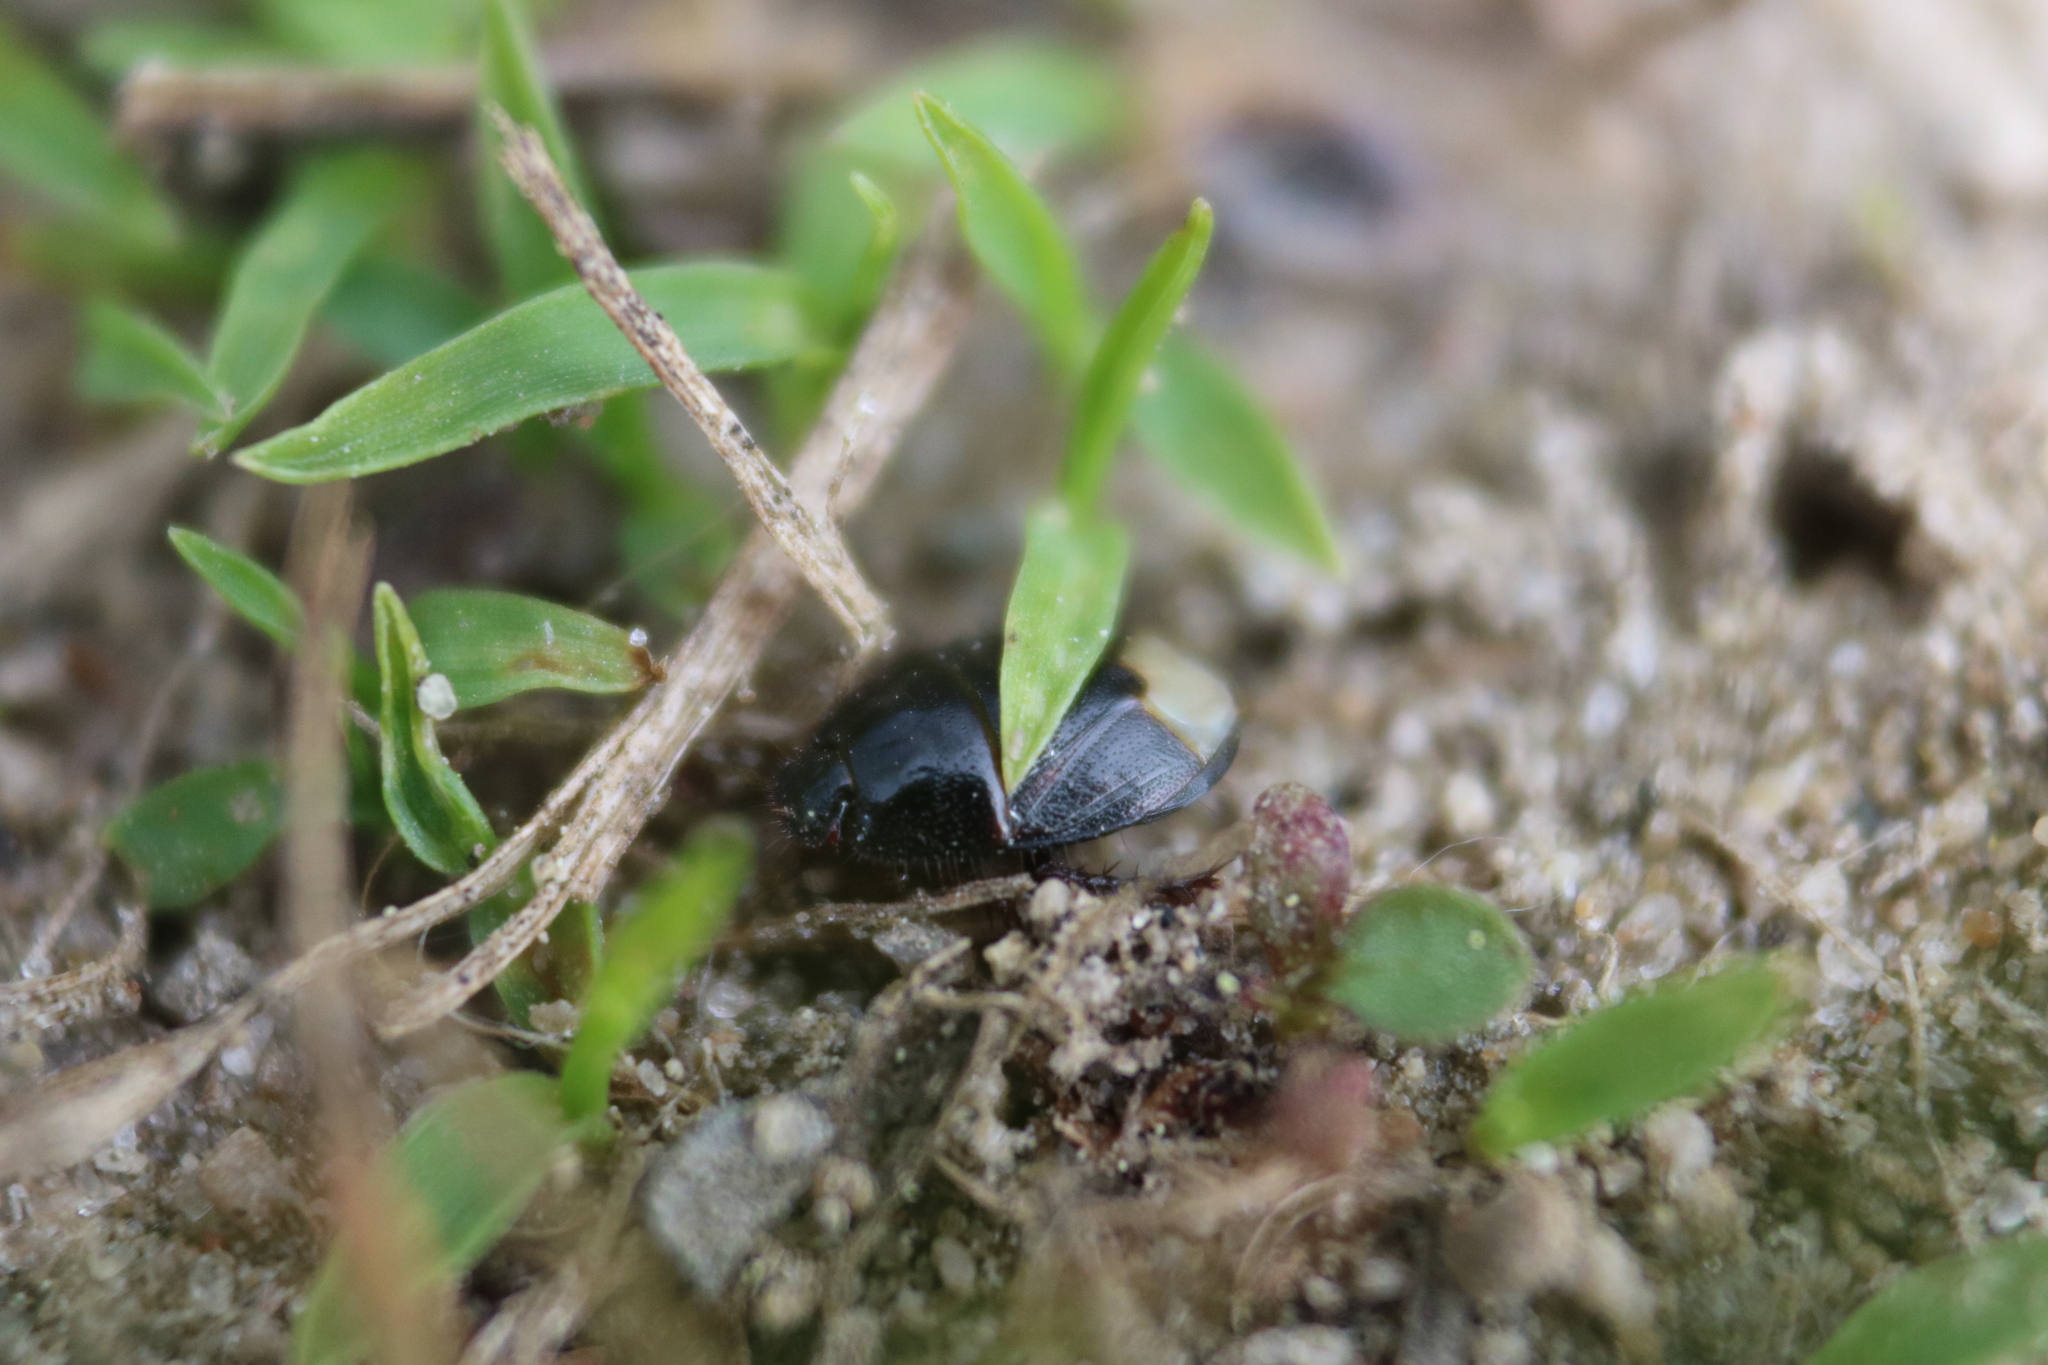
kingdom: Animalia
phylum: Arthropoda
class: Insecta
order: Hemiptera
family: Cydnidae
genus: Pangaeus
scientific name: Pangaeus bilineatus
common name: Burrower bug
